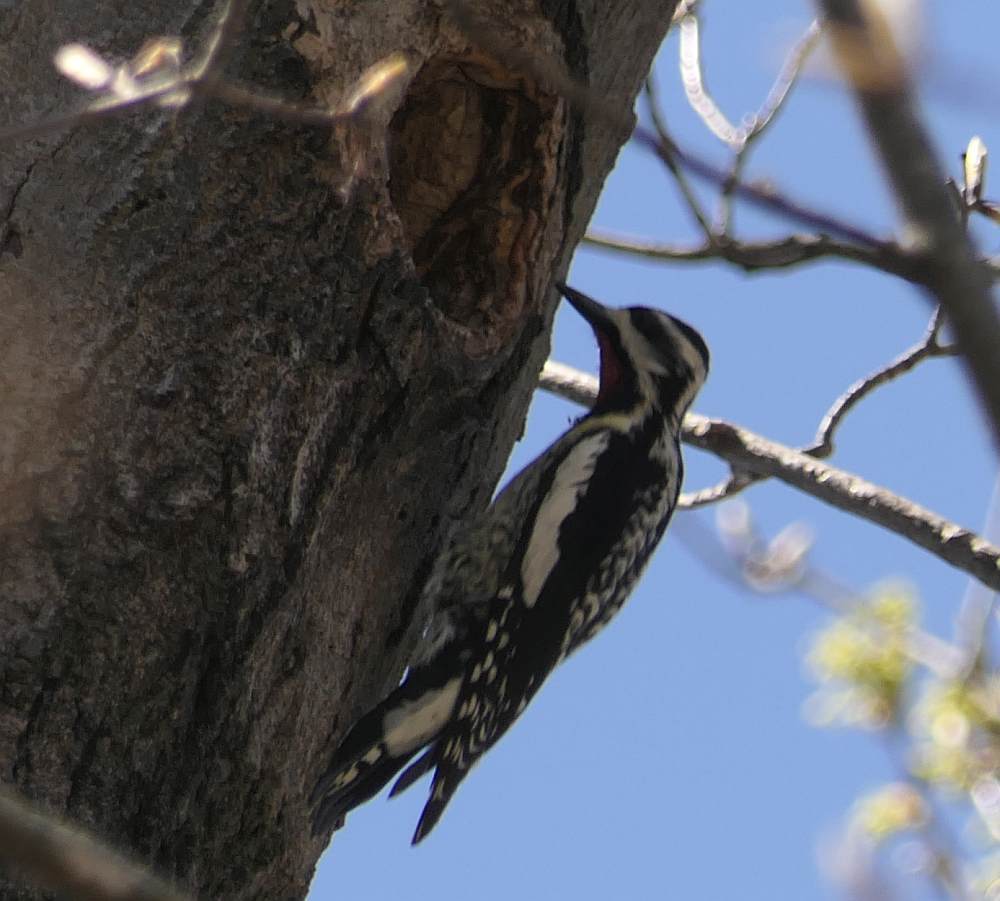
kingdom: Animalia
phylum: Chordata
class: Aves
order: Piciformes
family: Picidae
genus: Sphyrapicus
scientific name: Sphyrapicus varius
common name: Yellow-bellied sapsucker
